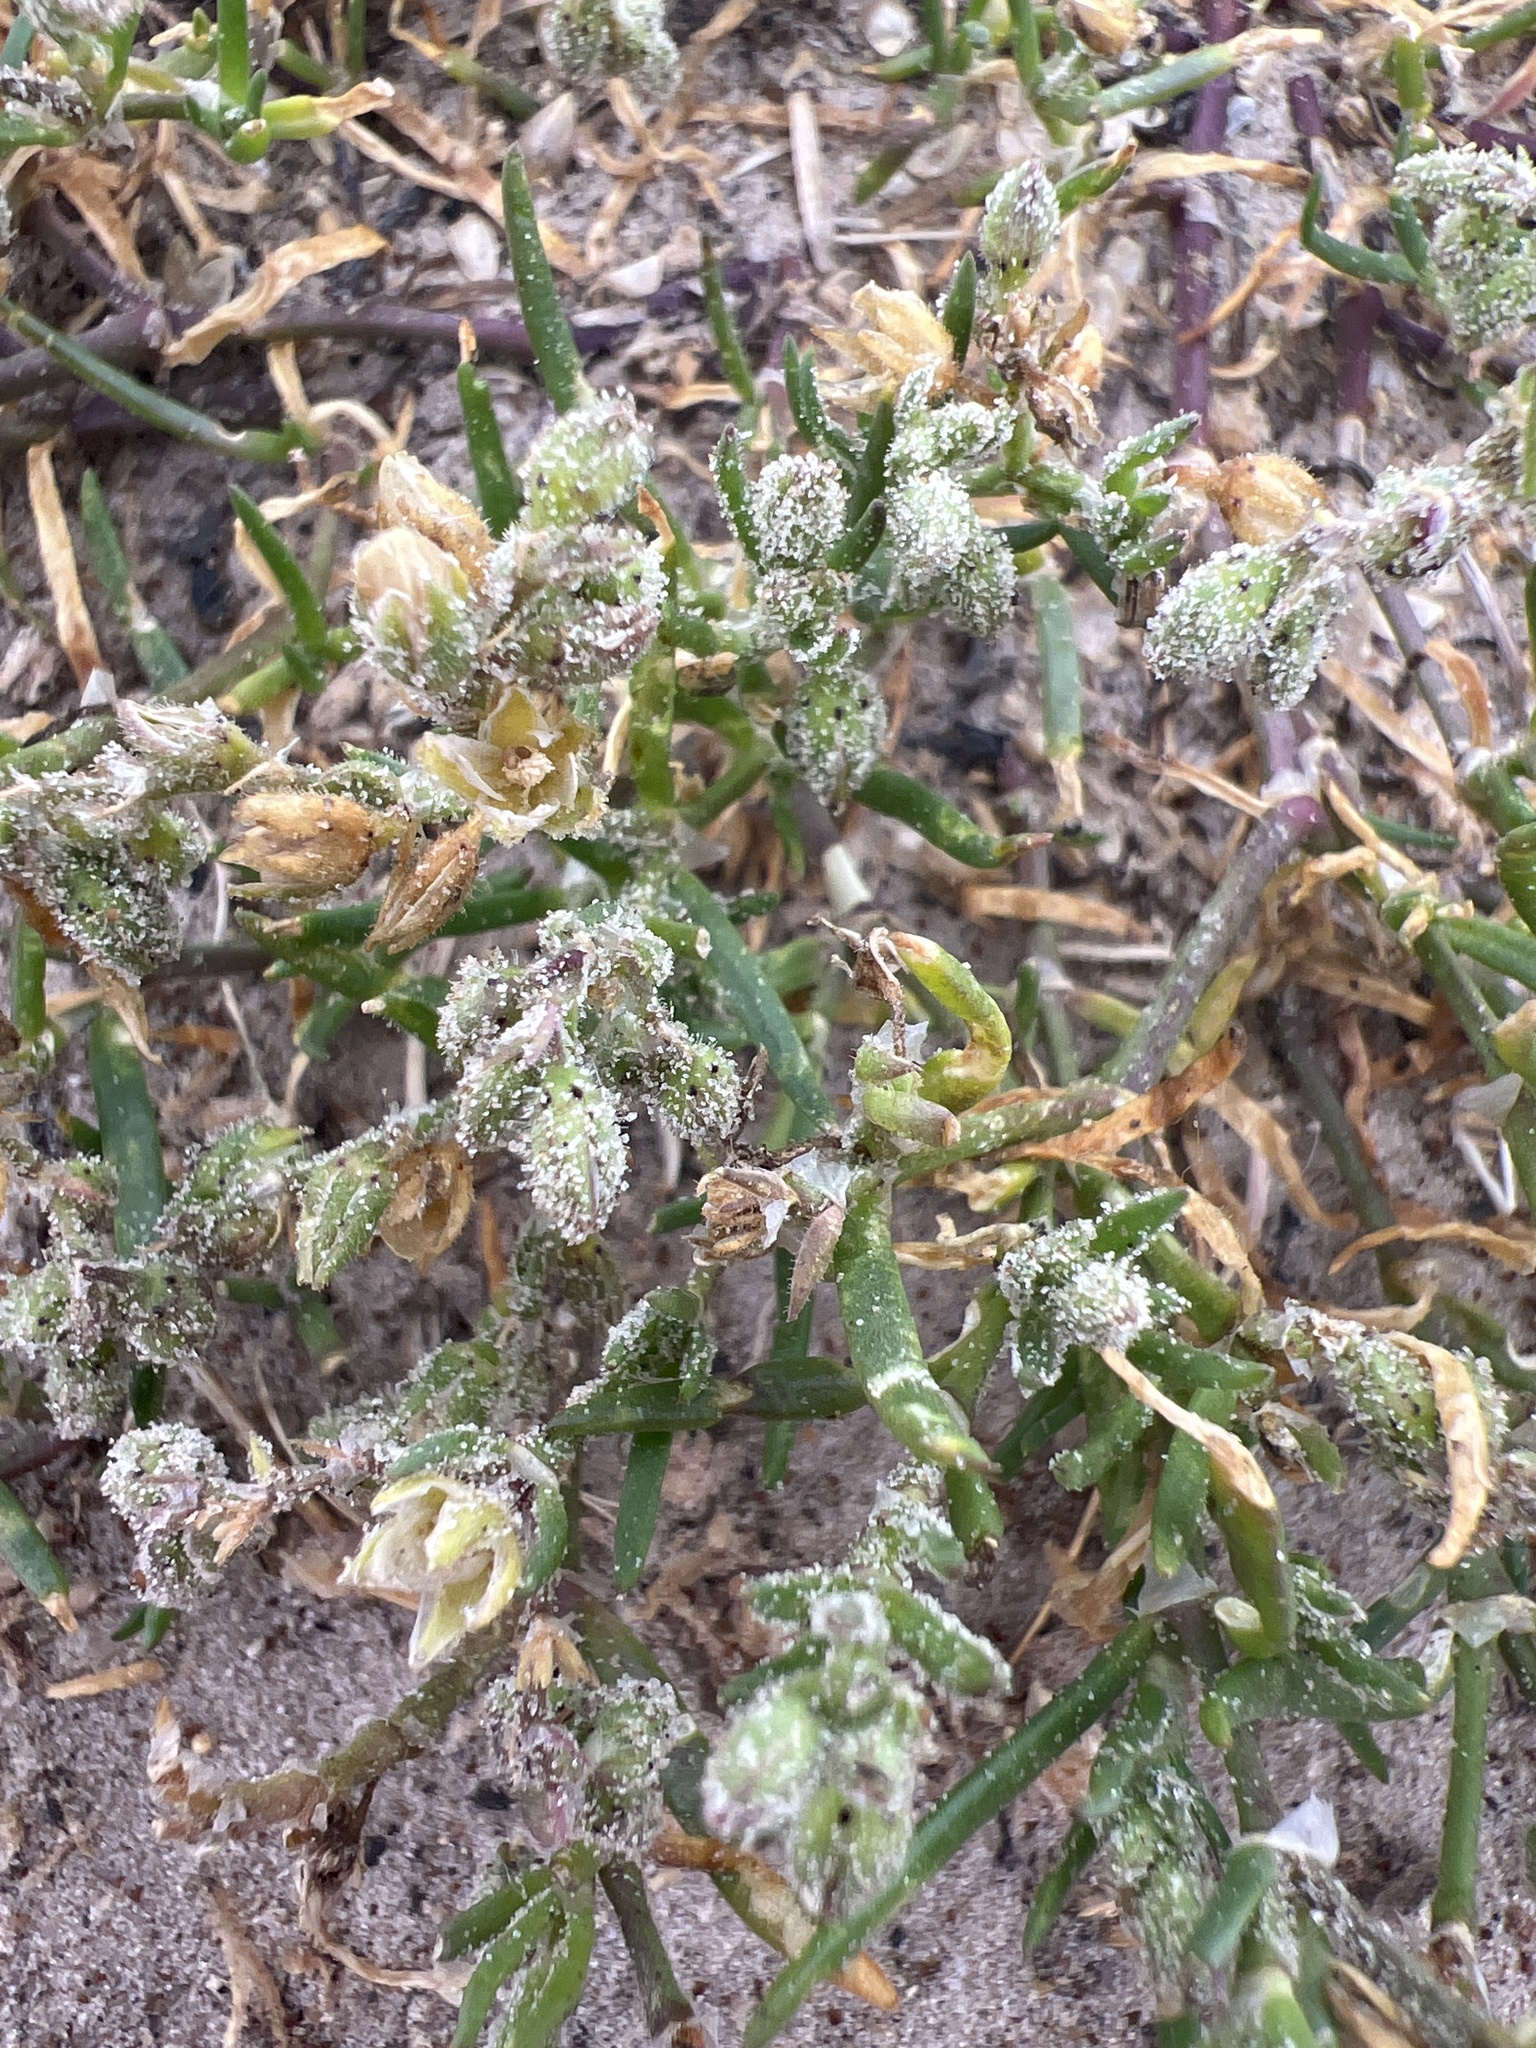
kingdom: Plantae
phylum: Tracheophyta
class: Magnoliopsida
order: Caryophyllales
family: Caryophyllaceae
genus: Spergularia
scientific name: Spergularia marina
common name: Lesser sea-spurrey
